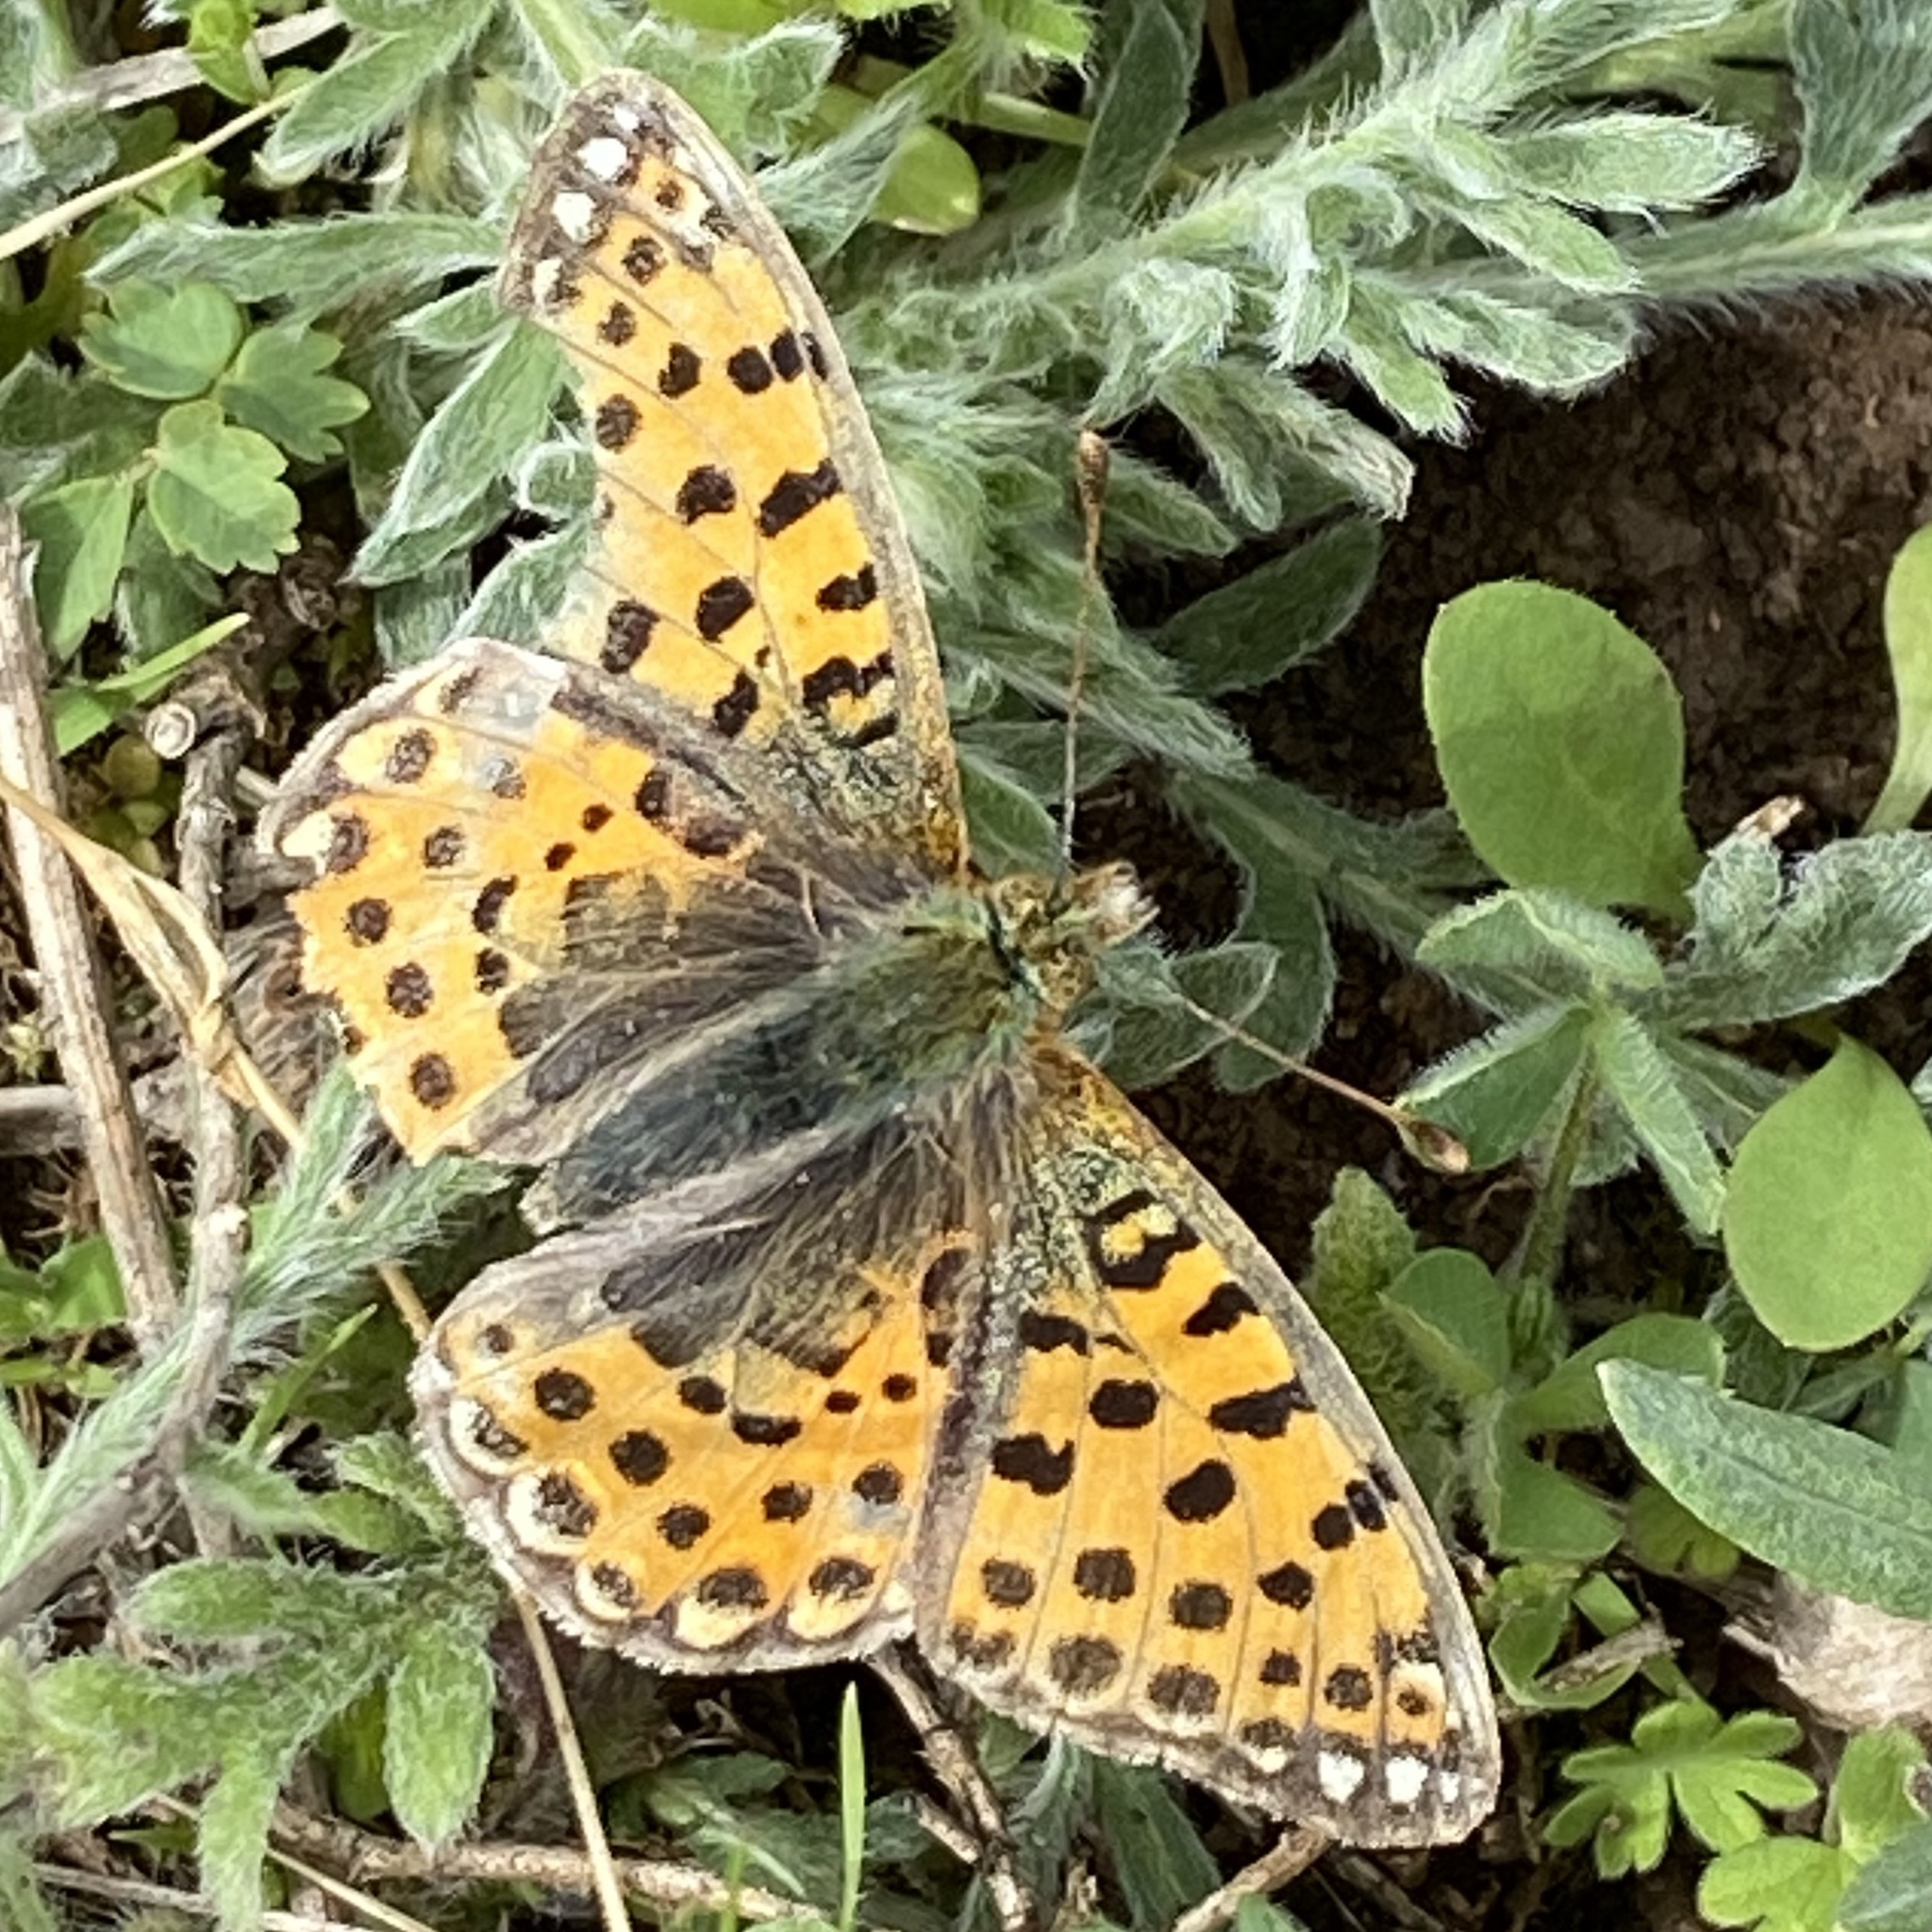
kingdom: Animalia
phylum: Arthropoda
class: Insecta
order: Lepidoptera
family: Nymphalidae
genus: Issoria
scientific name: Issoria lathonia
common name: Queen of spain fritillary
